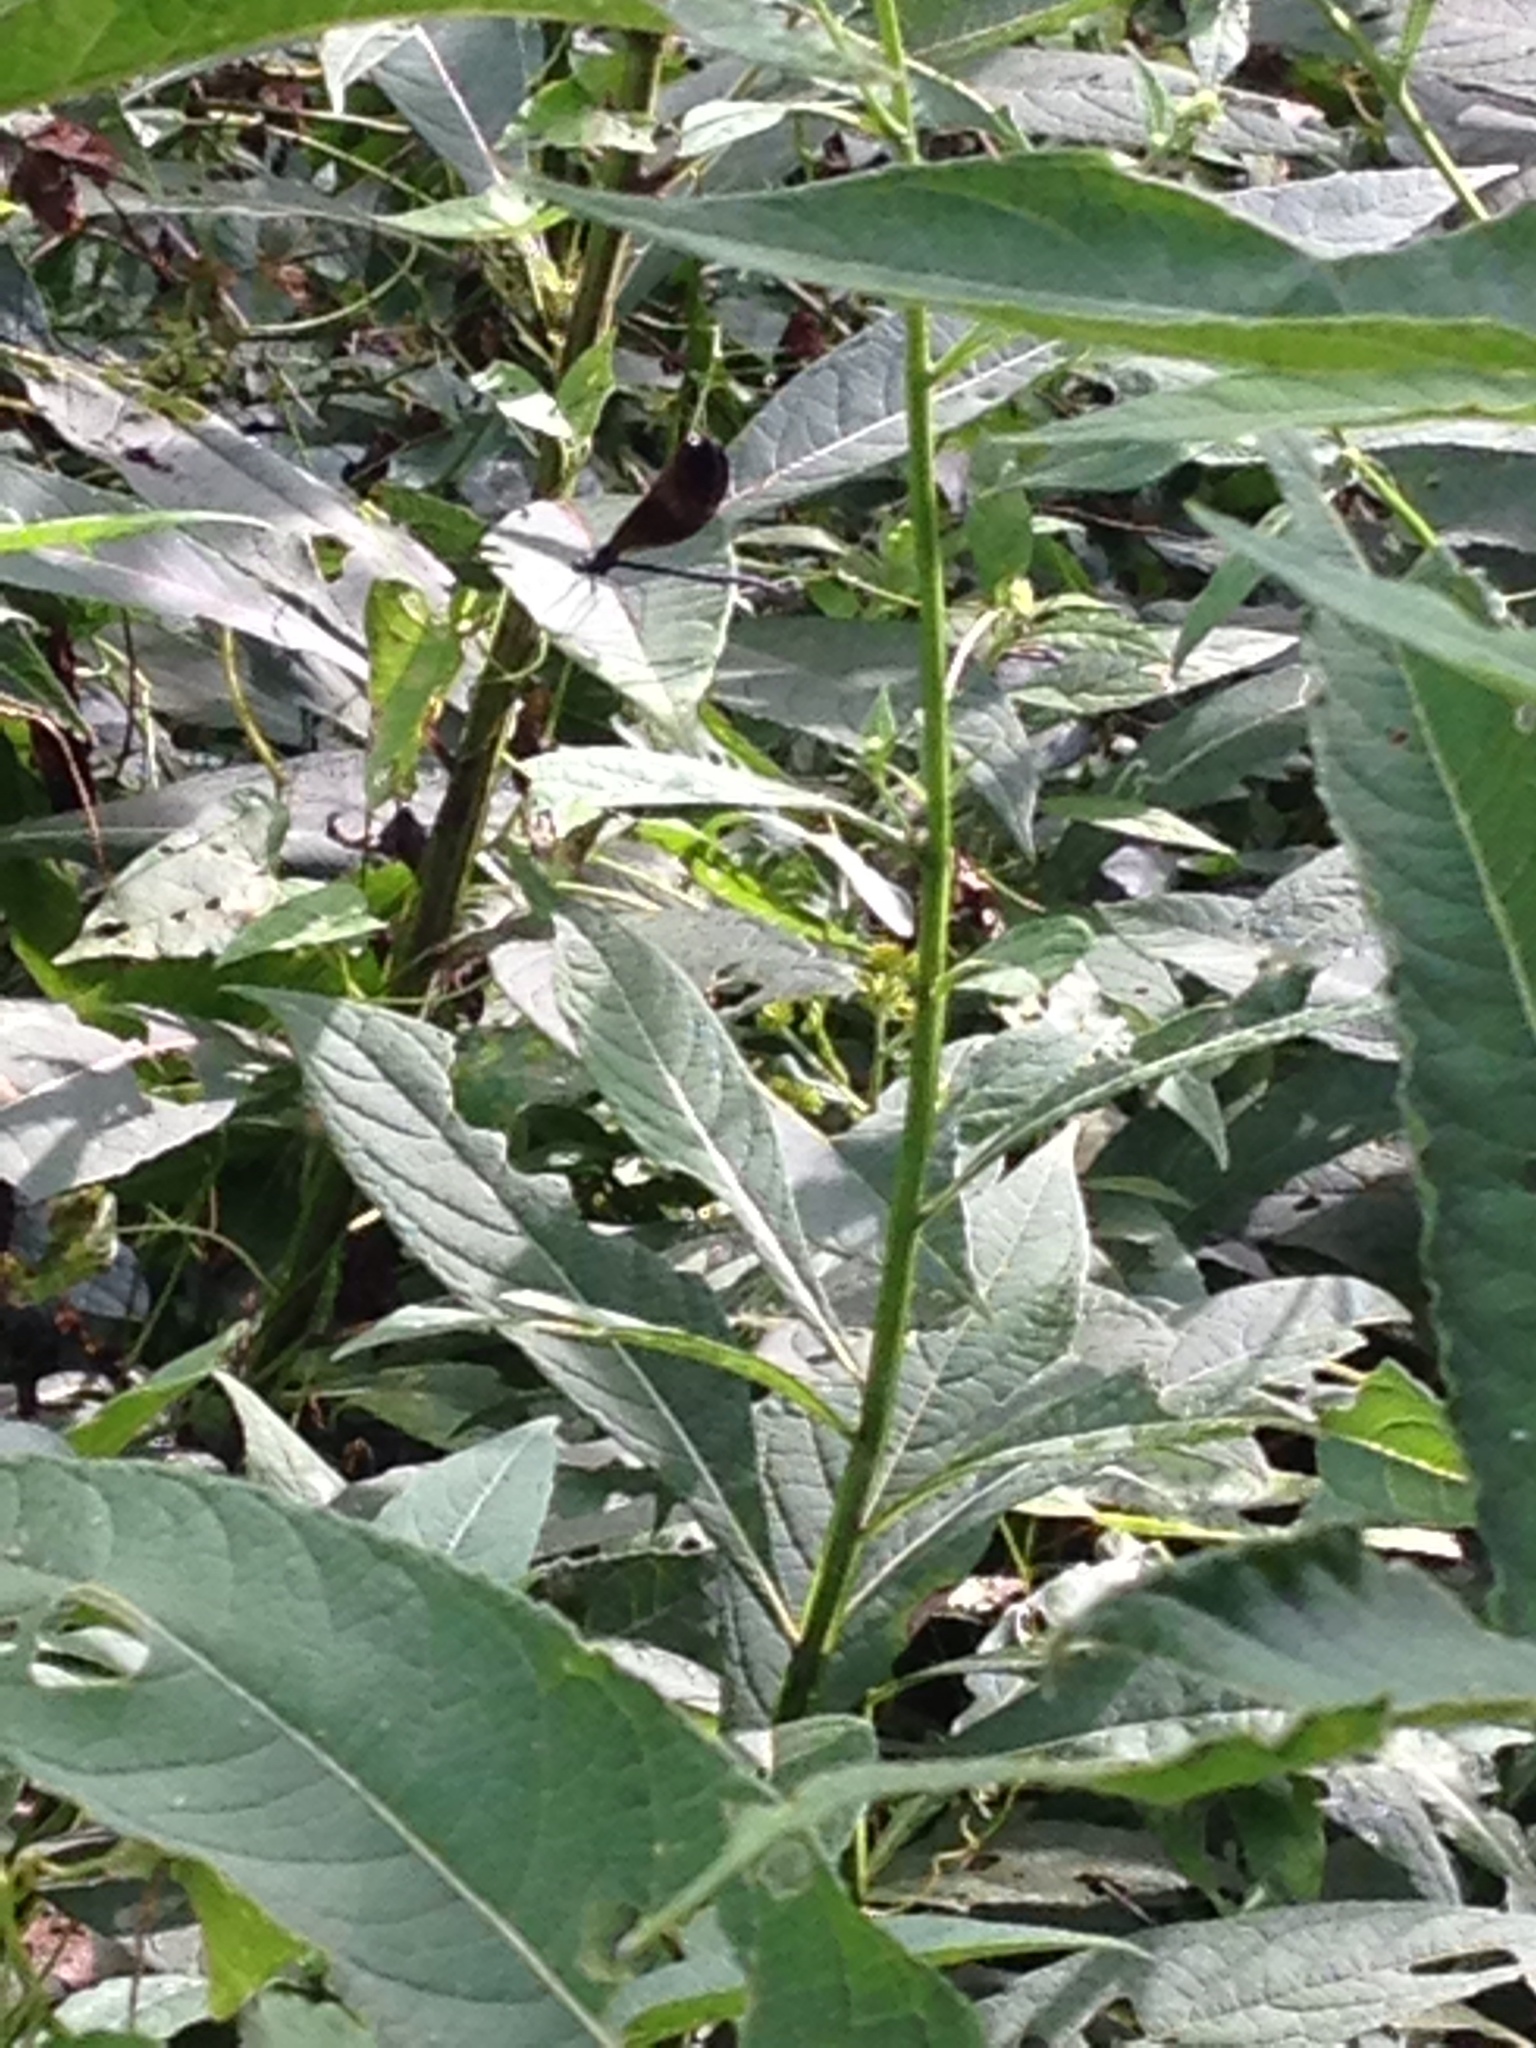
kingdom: Animalia
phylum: Arthropoda
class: Insecta
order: Odonata
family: Calopterygidae
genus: Calopteryx
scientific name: Calopteryx maculata
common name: Ebony jewelwing
